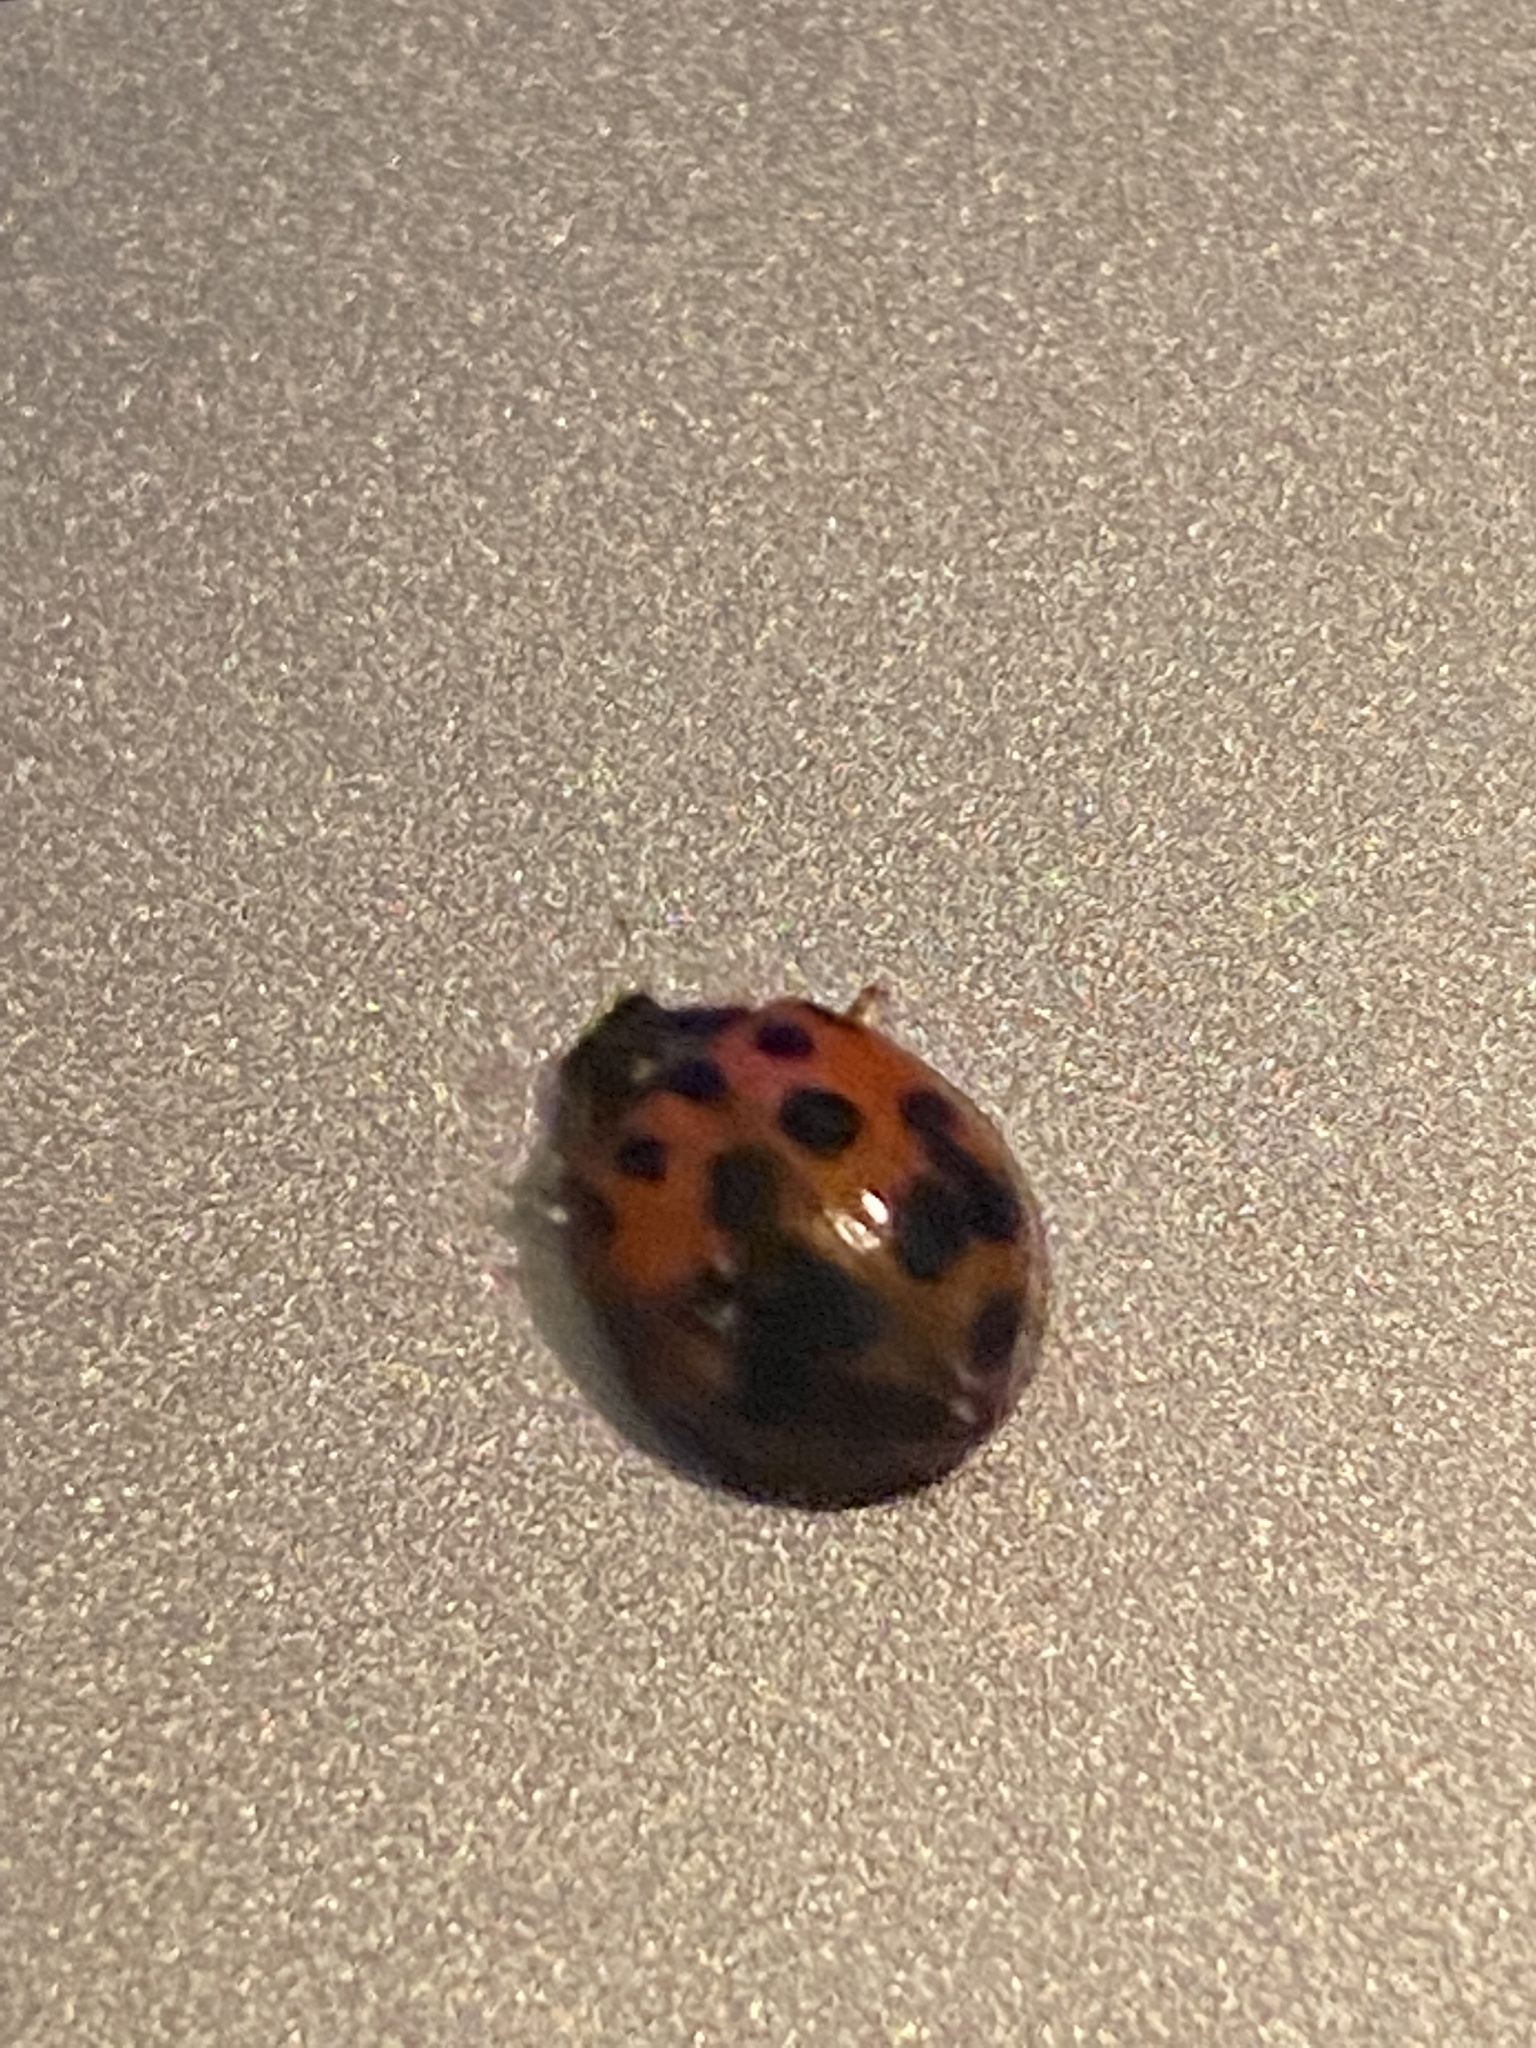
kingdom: Animalia
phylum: Arthropoda
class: Insecta
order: Coleoptera
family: Coccinellidae
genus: Harmonia
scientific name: Harmonia axyridis
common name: Harlequin ladybird
